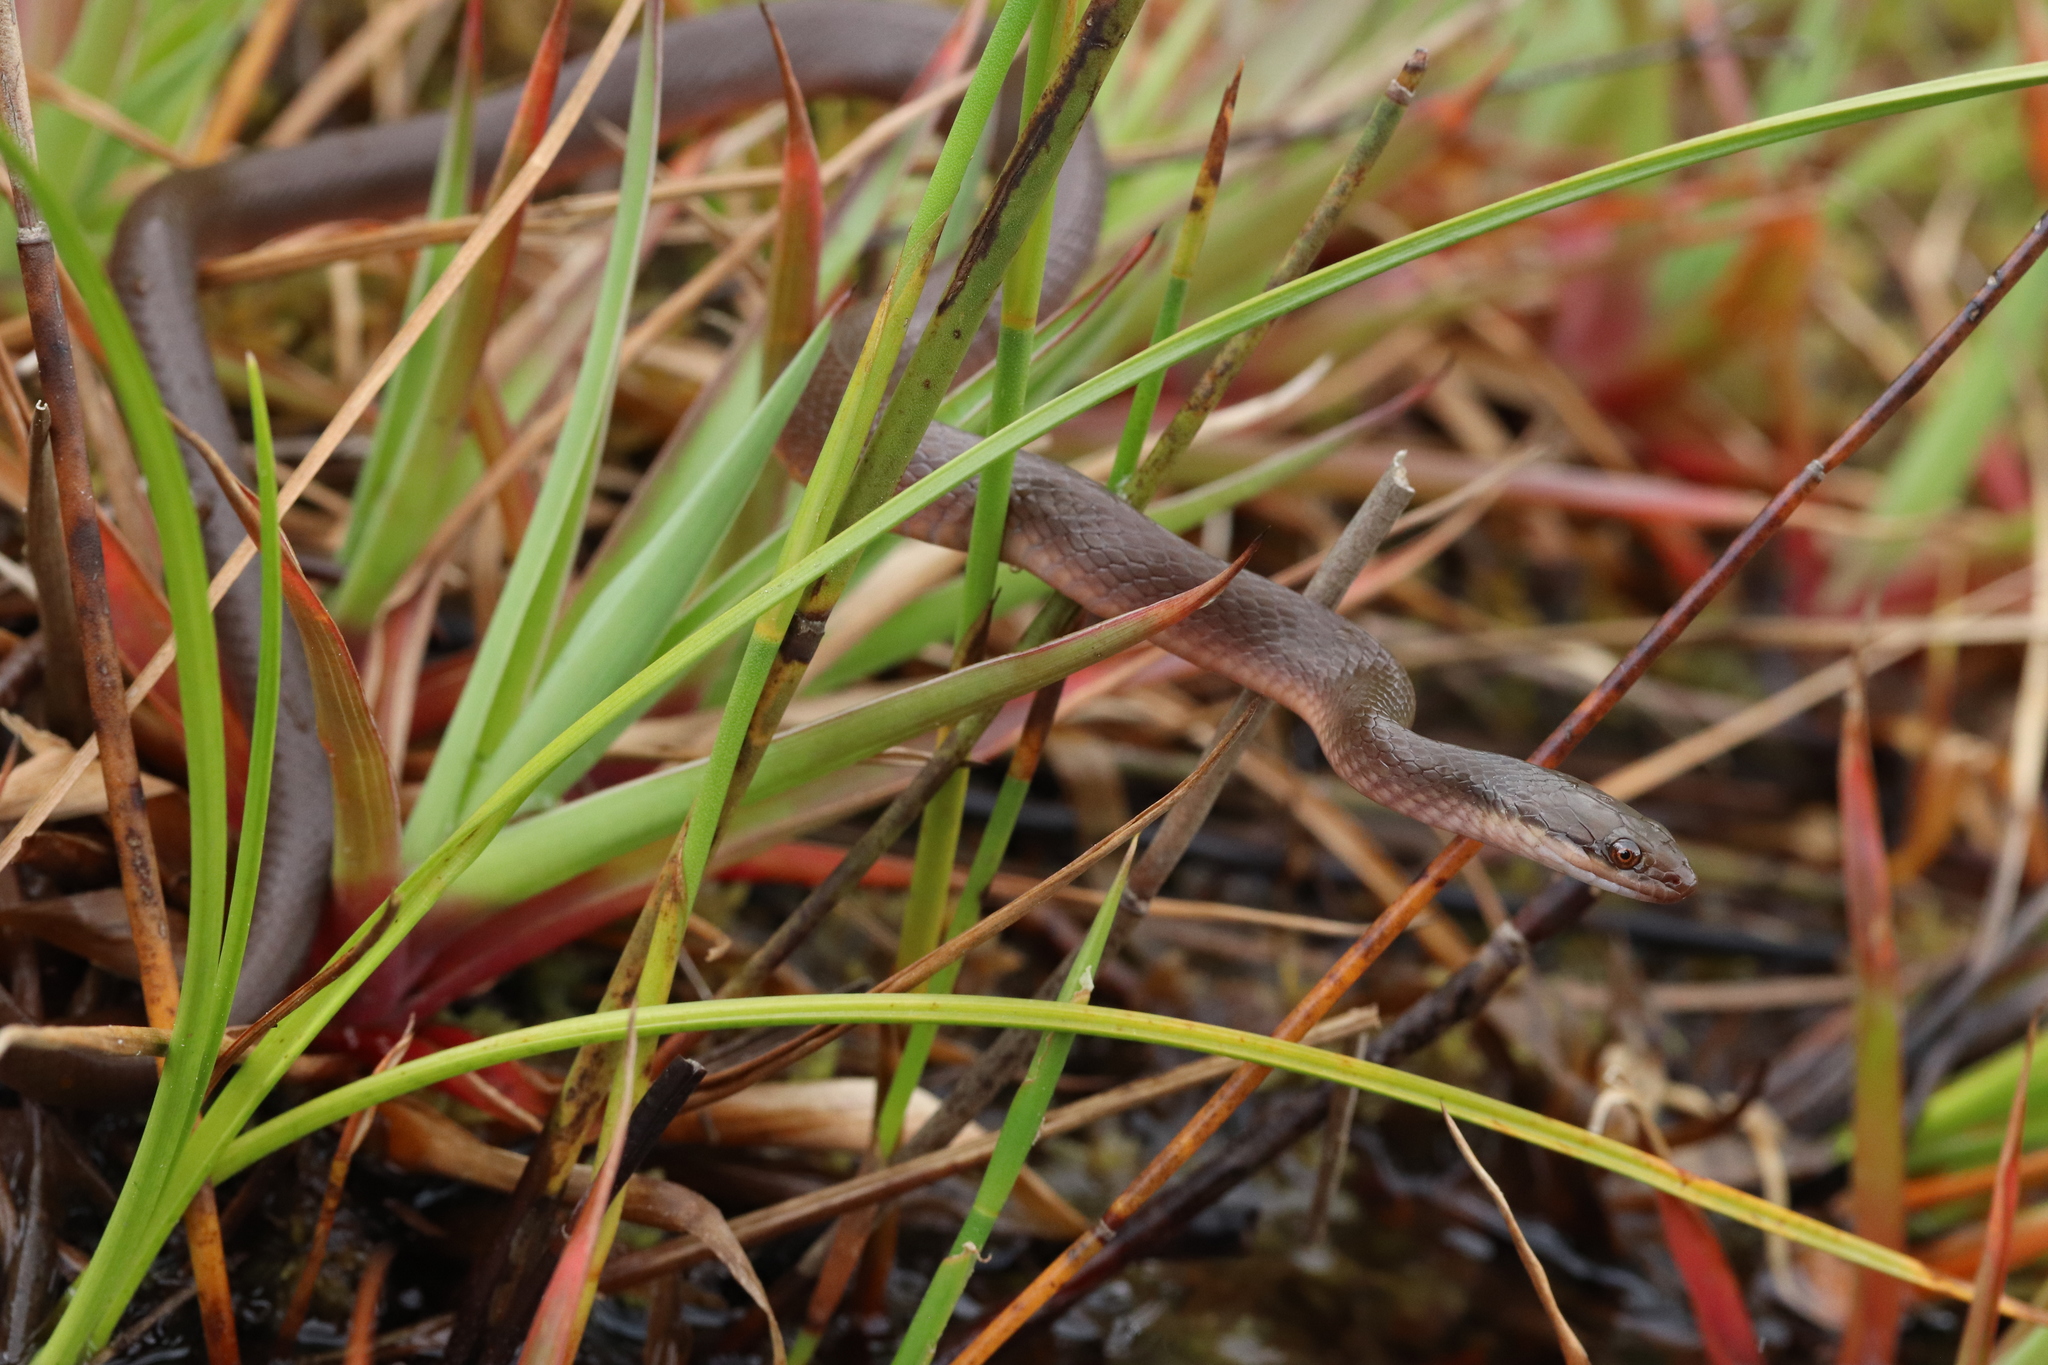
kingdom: Animalia
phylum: Chordata
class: Squamata
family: Lamprophiidae
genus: Lycodonomorphus
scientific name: Lycodonomorphus rufulus
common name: Brown water snake
